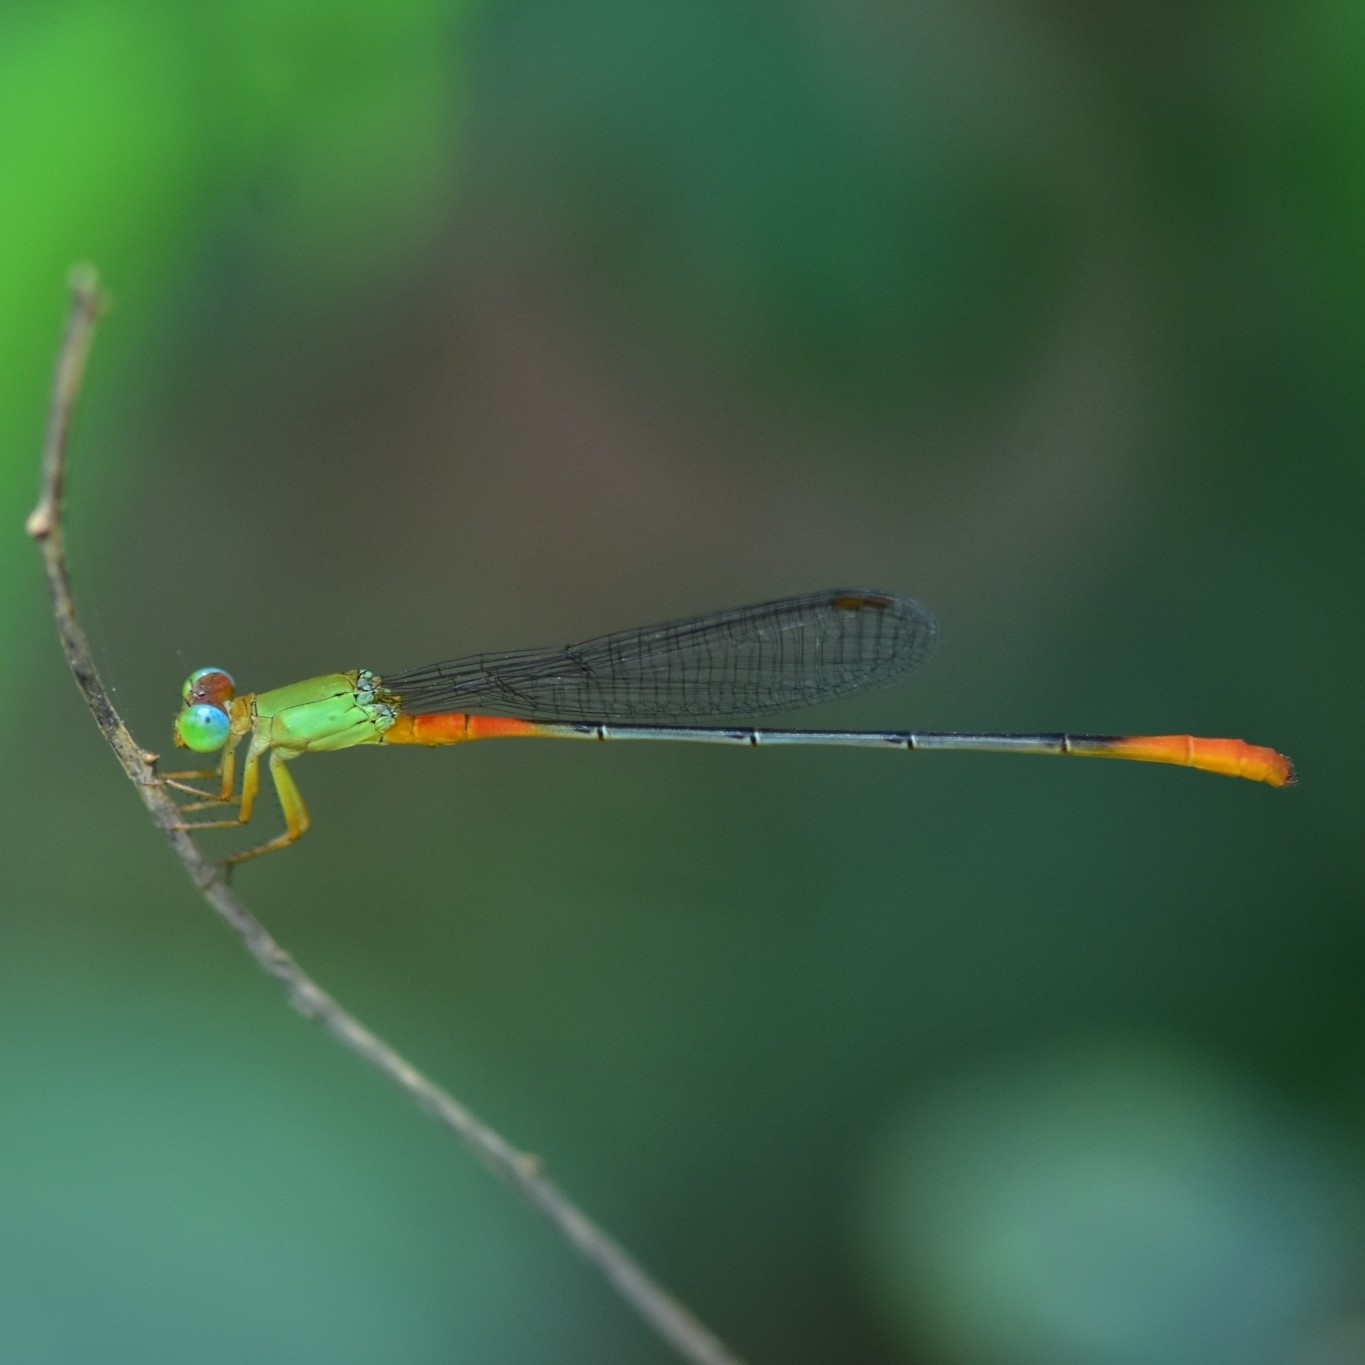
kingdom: Animalia
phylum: Arthropoda
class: Insecta
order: Odonata
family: Coenagrionidae
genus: Ceriagrion
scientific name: Ceriagrion cerinorubellum
